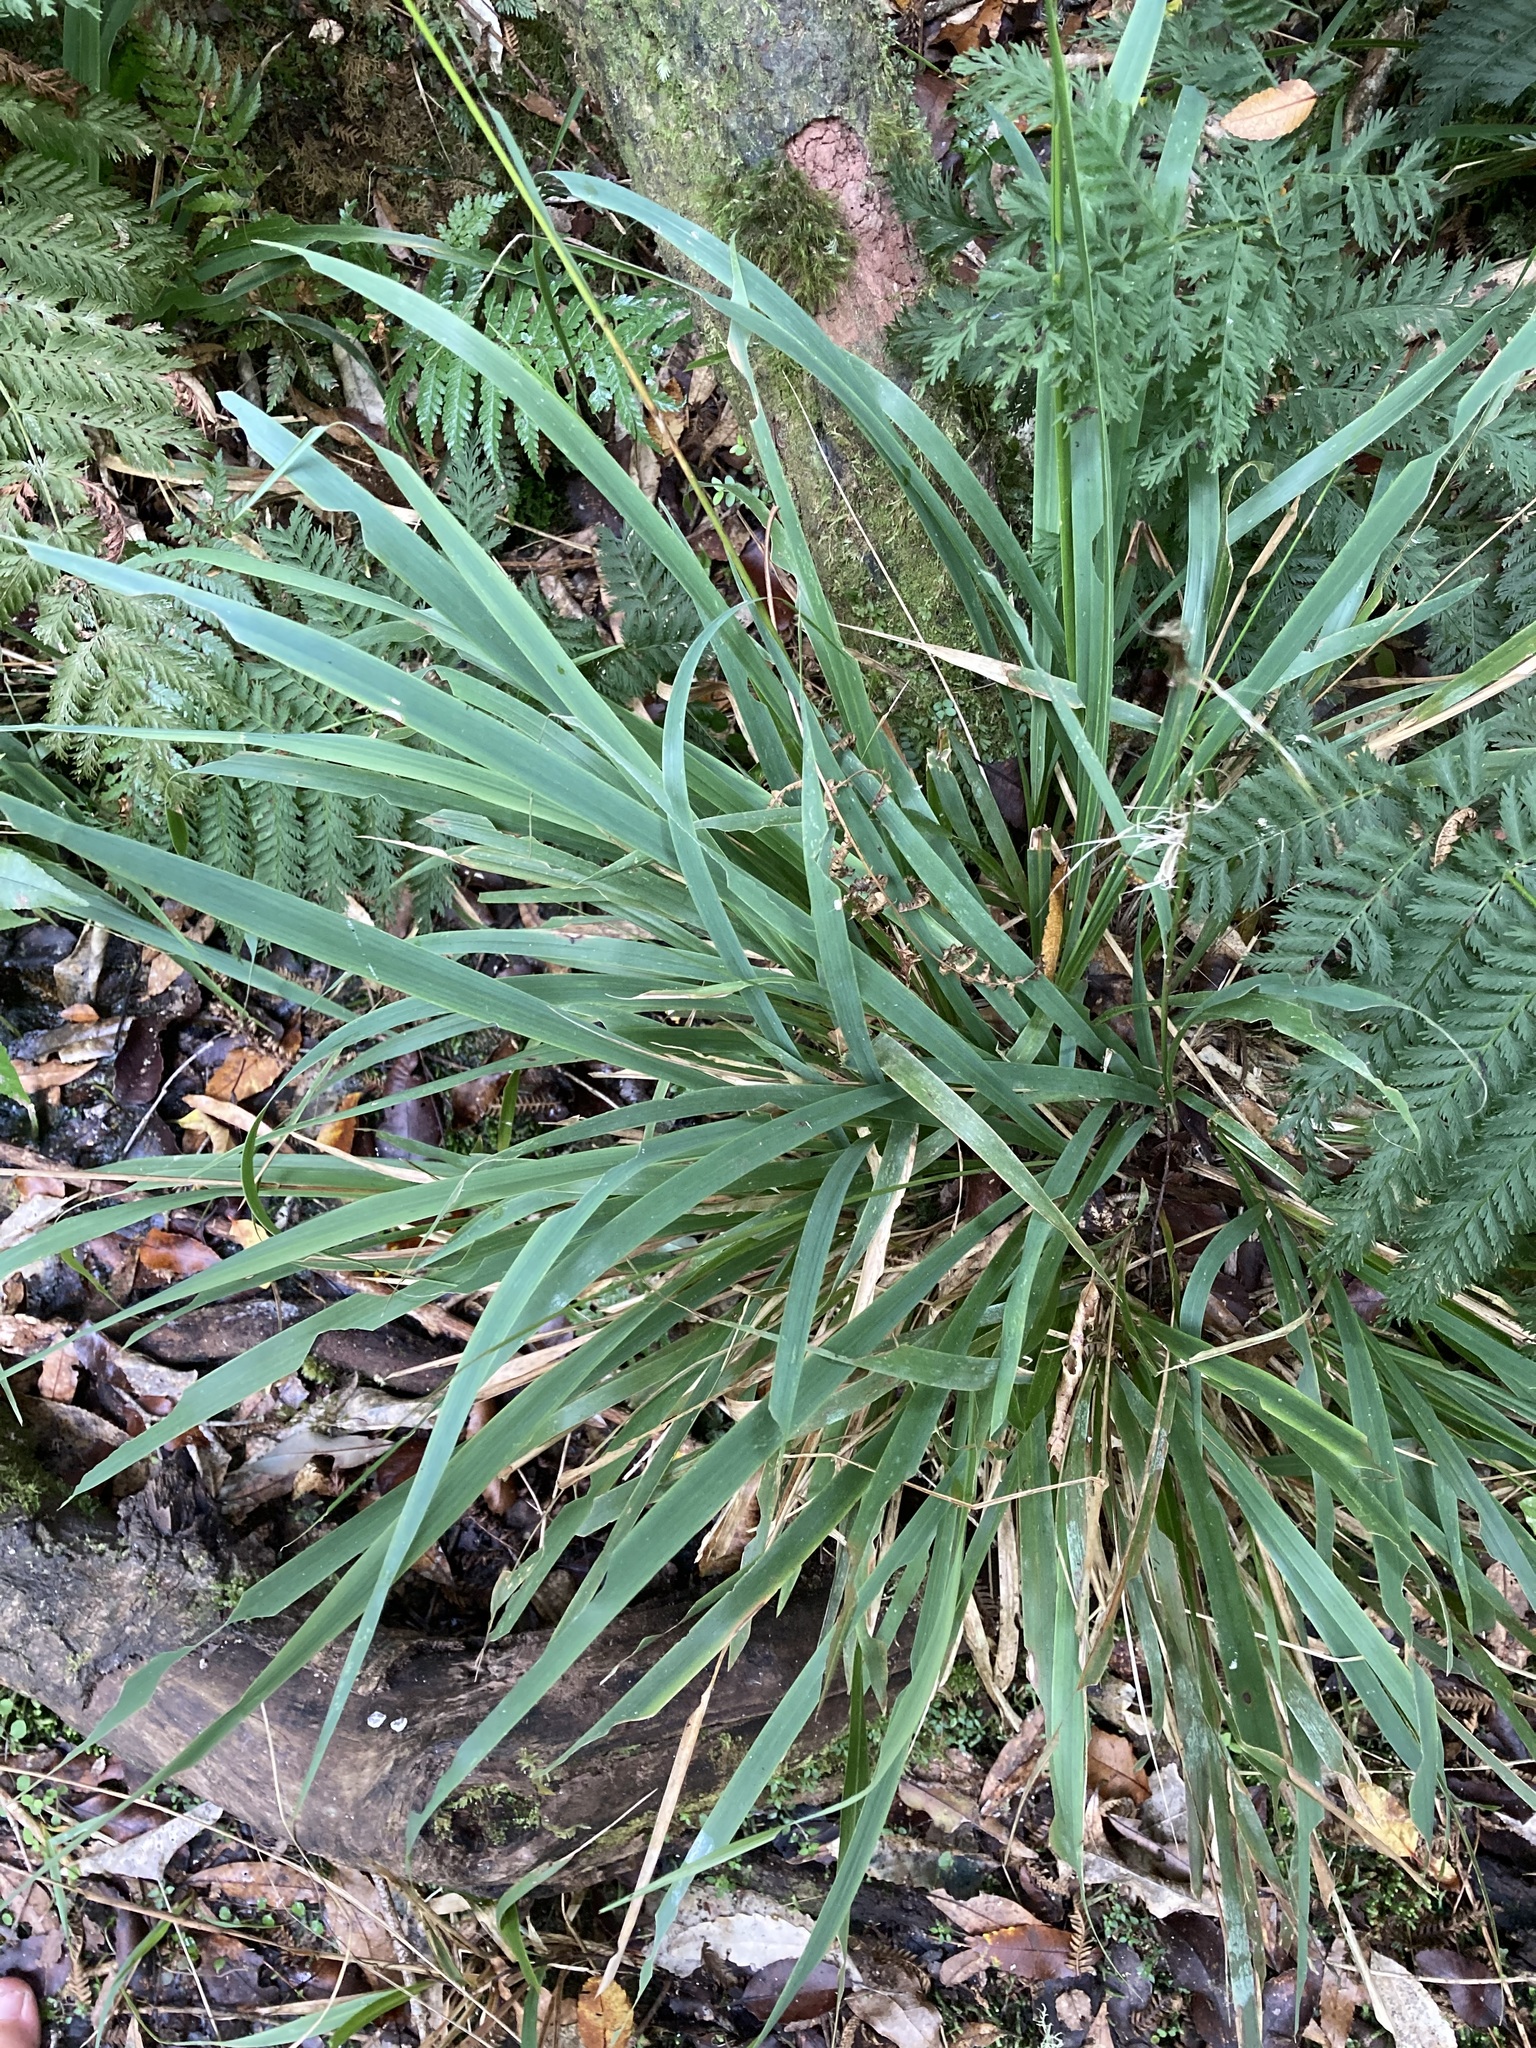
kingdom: Plantae
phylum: Tracheophyta
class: Liliopsida
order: Poales
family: Poaceae
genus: Ehrharta
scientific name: Ehrharta diplax
